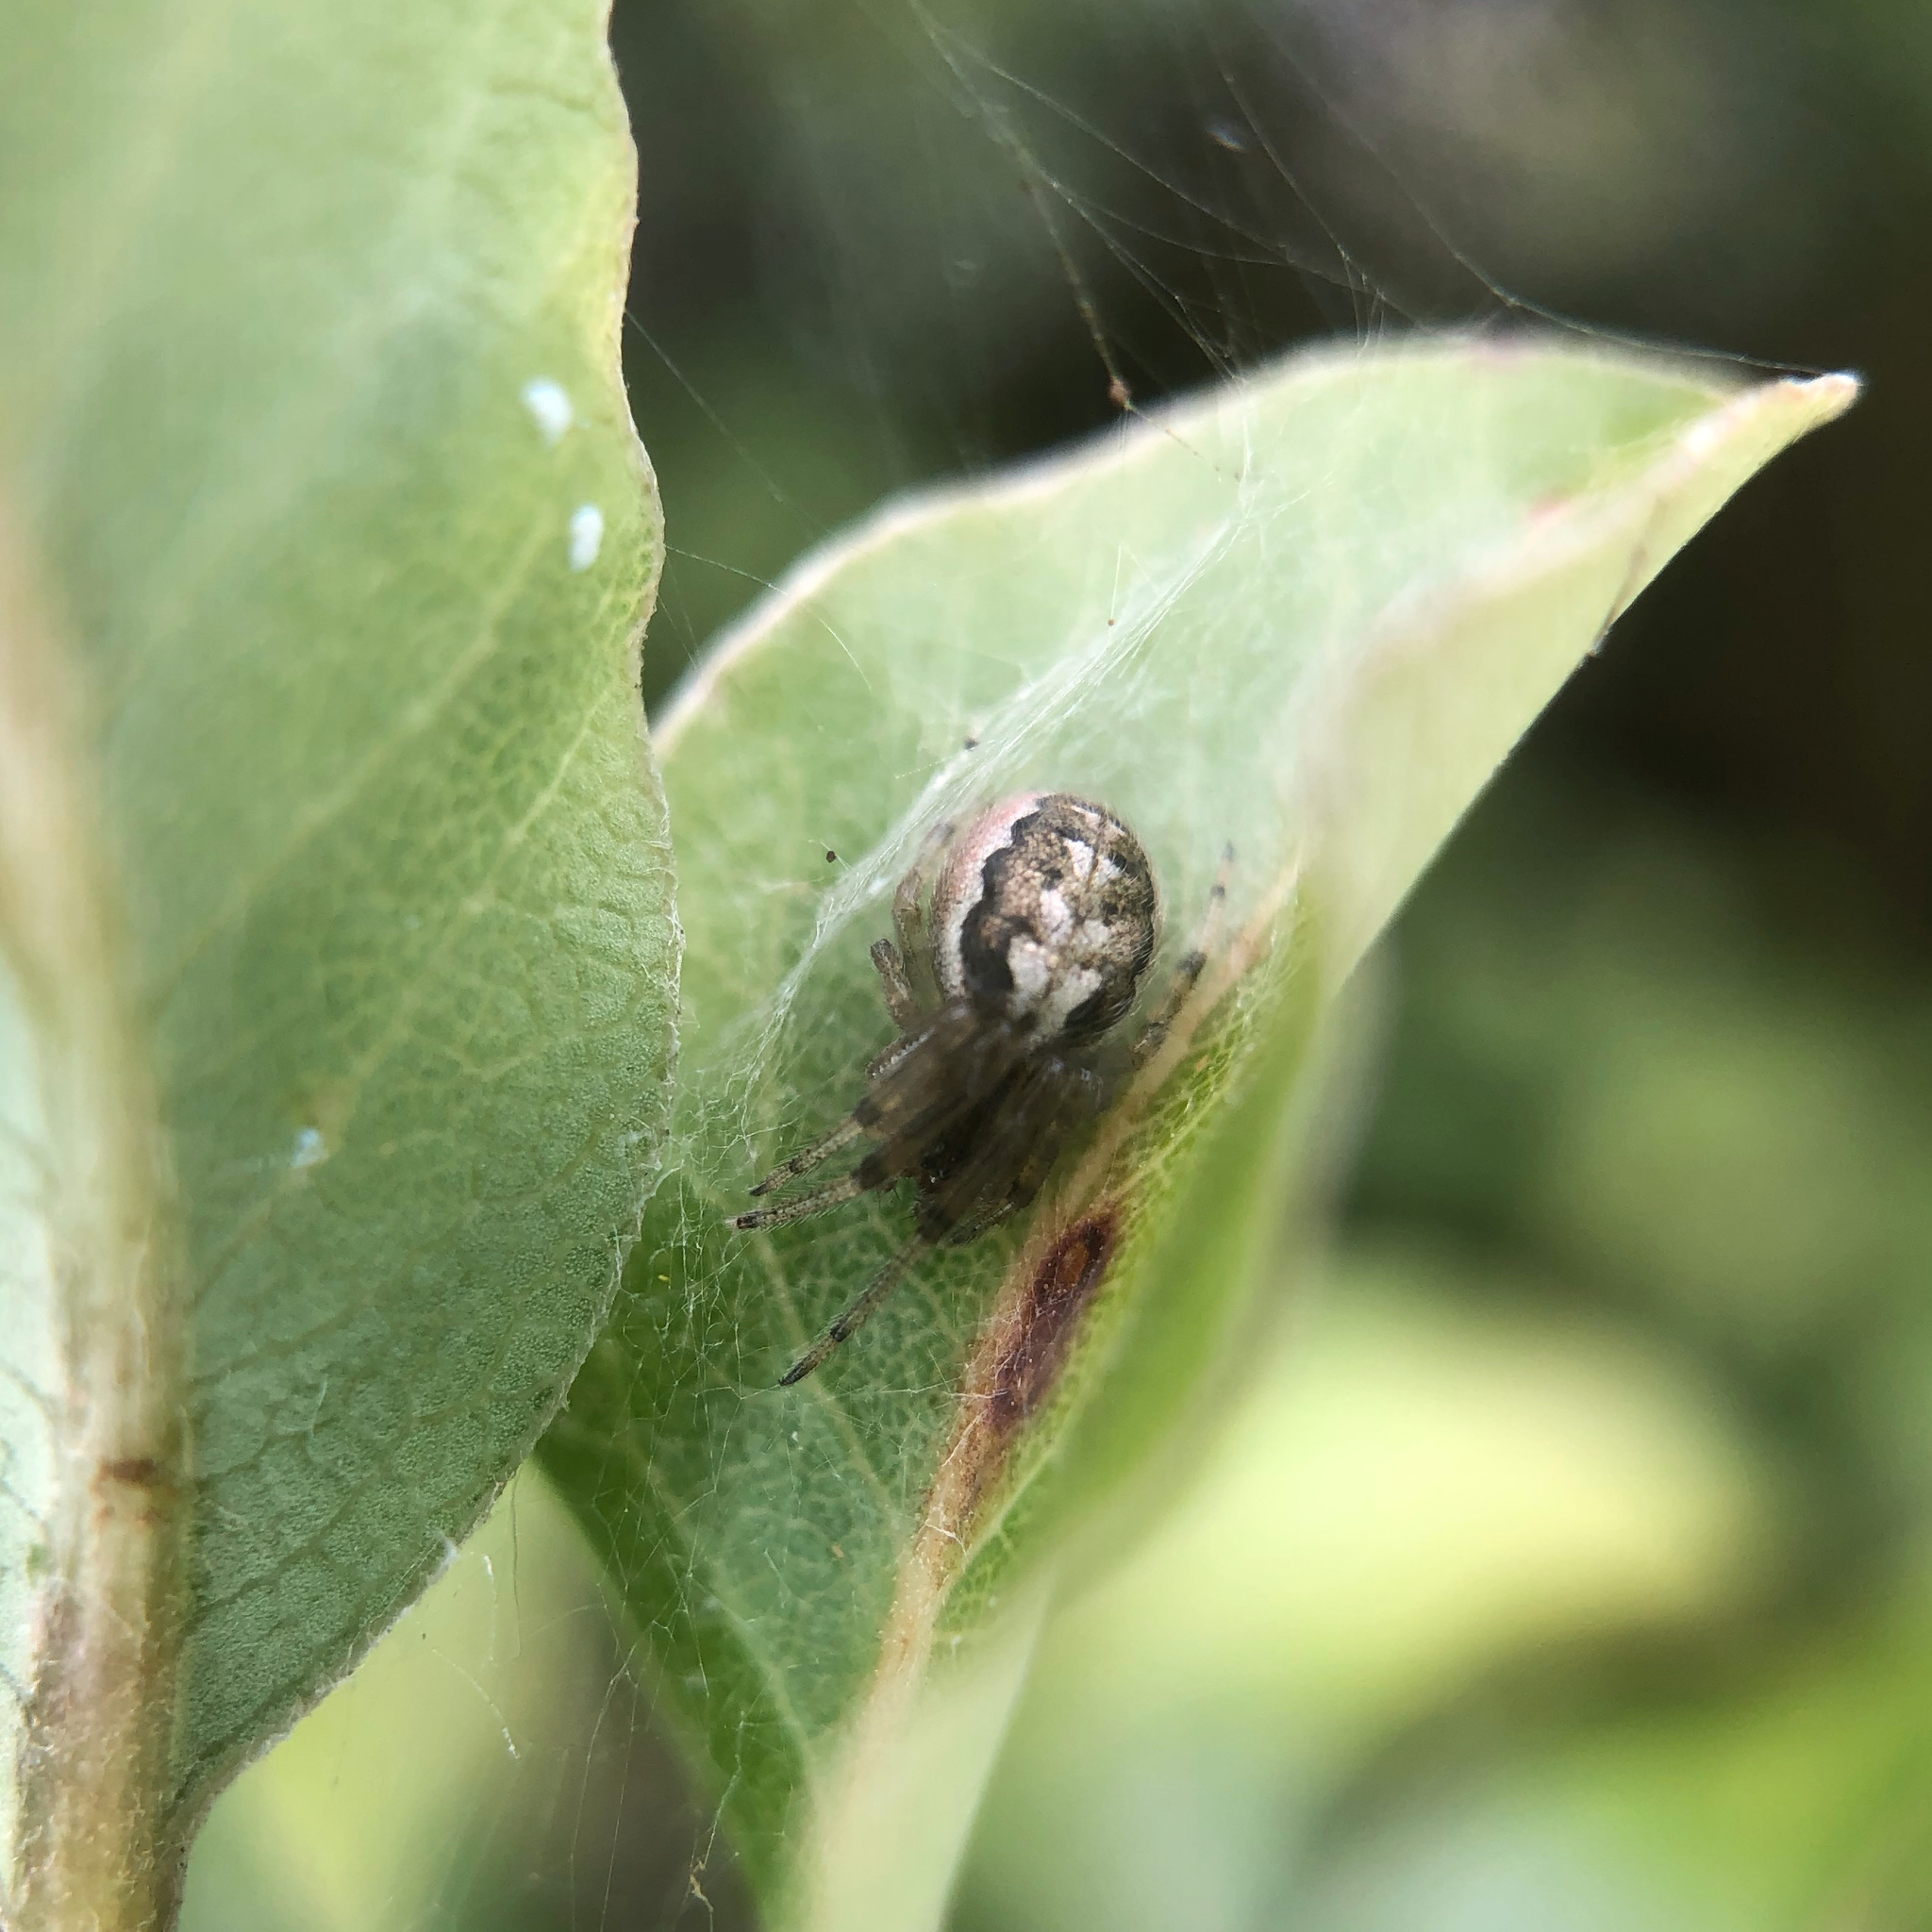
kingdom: Animalia
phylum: Arthropoda
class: Arachnida
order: Araneae
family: Araneidae
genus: Zygiella
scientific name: Zygiella x-notata
